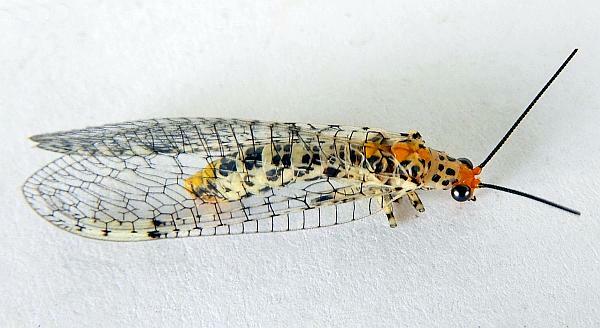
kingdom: Animalia
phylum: Arthropoda
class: Insecta
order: Neuroptera
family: Chrysopidae
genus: Abachrysa
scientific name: Abachrysa eureka
